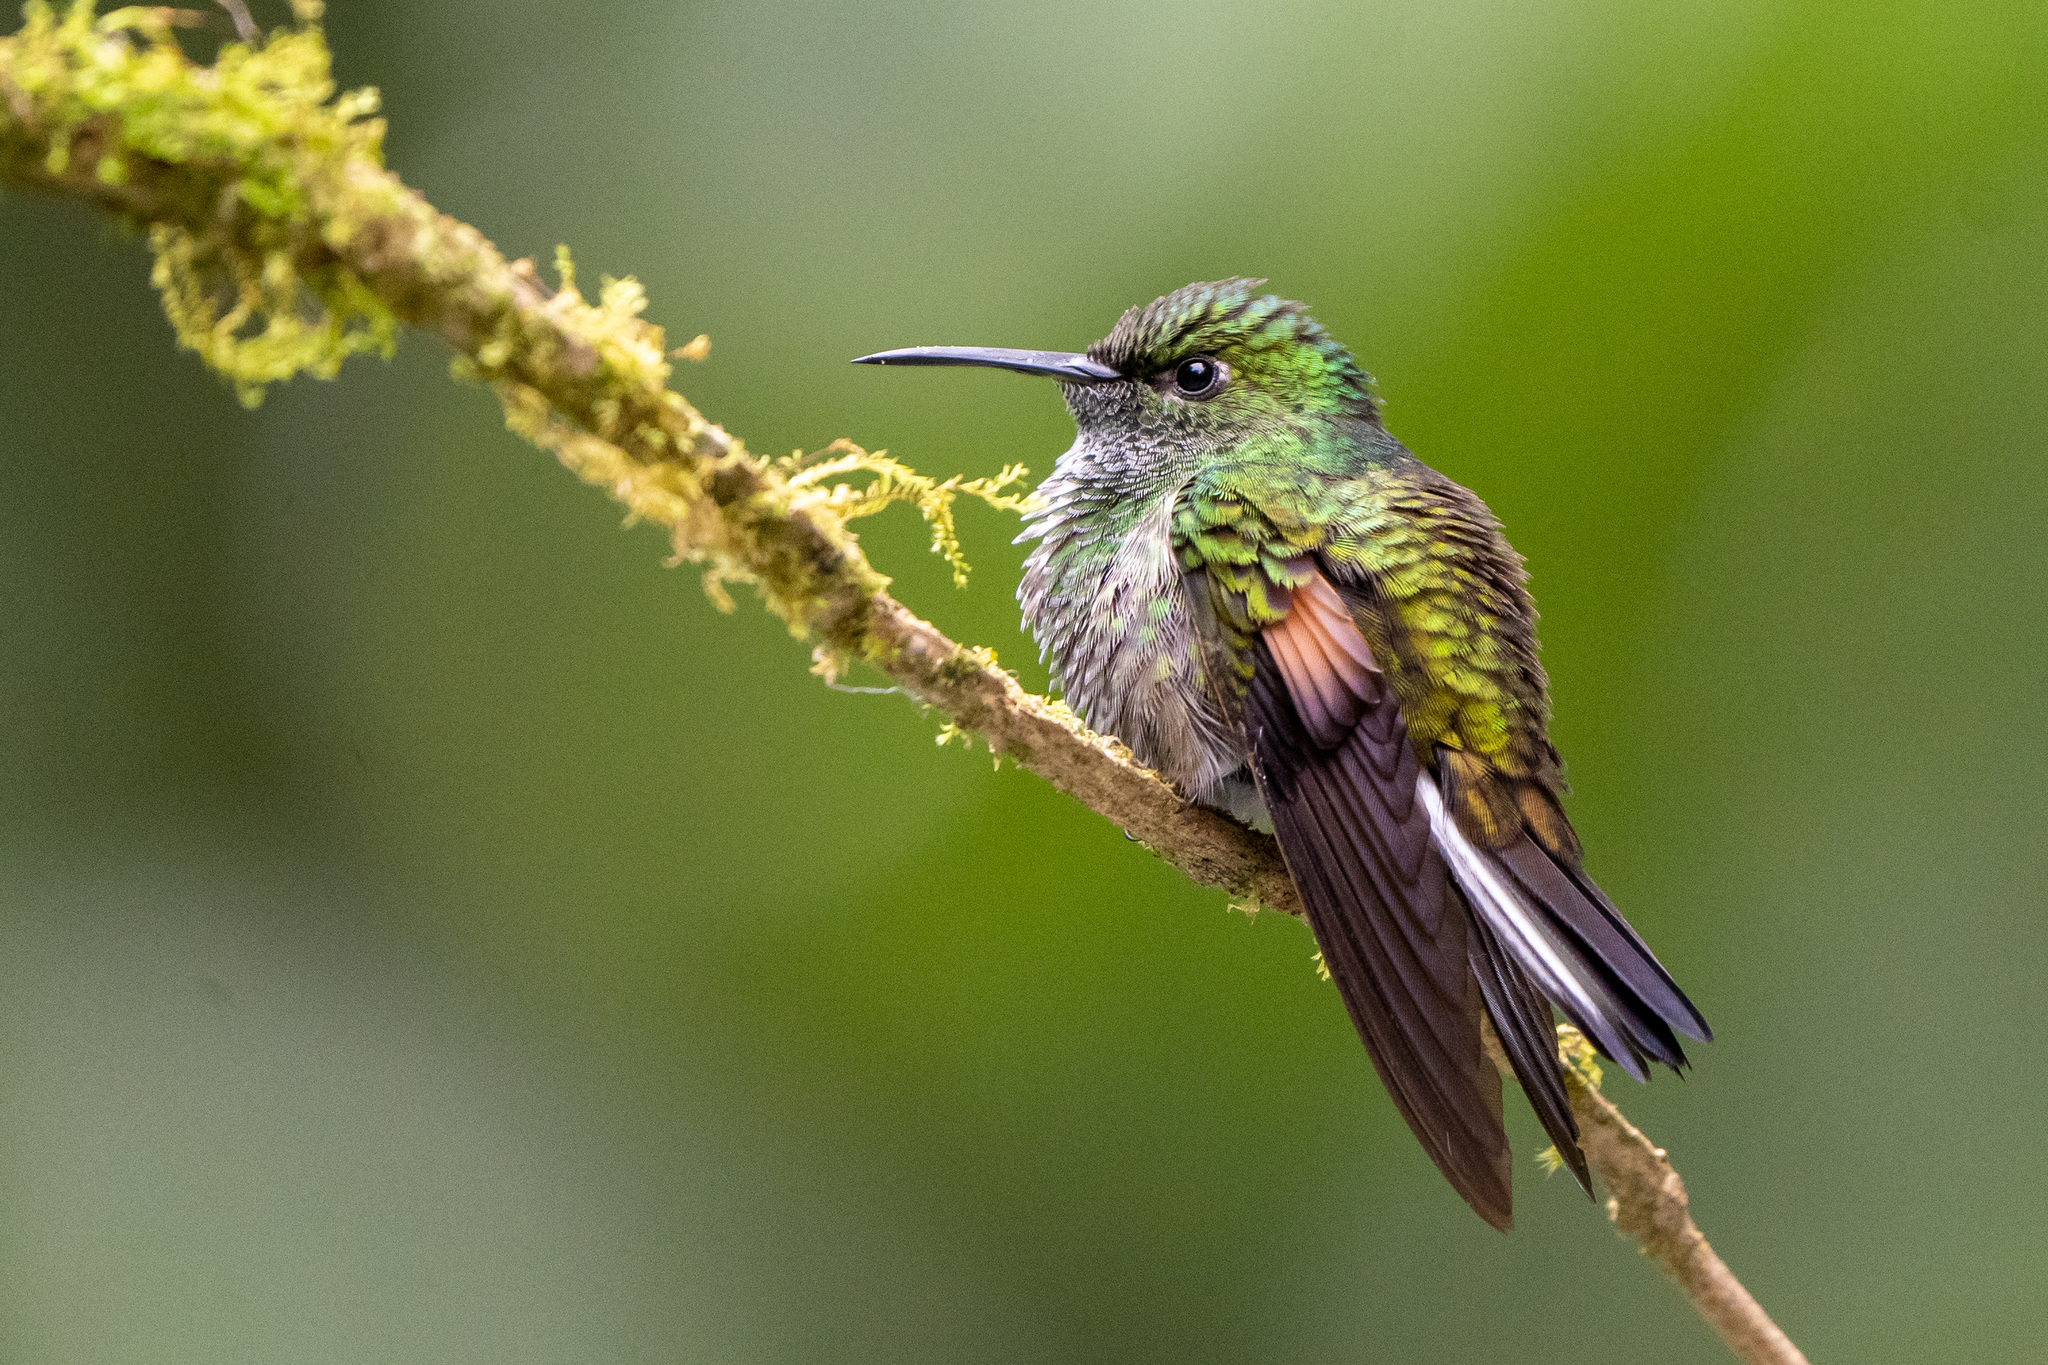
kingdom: Animalia
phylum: Chordata
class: Aves
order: Apodiformes
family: Trochilidae
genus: Eupherusa
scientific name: Eupherusa eximia
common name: Stripe-tailed hummingbird
